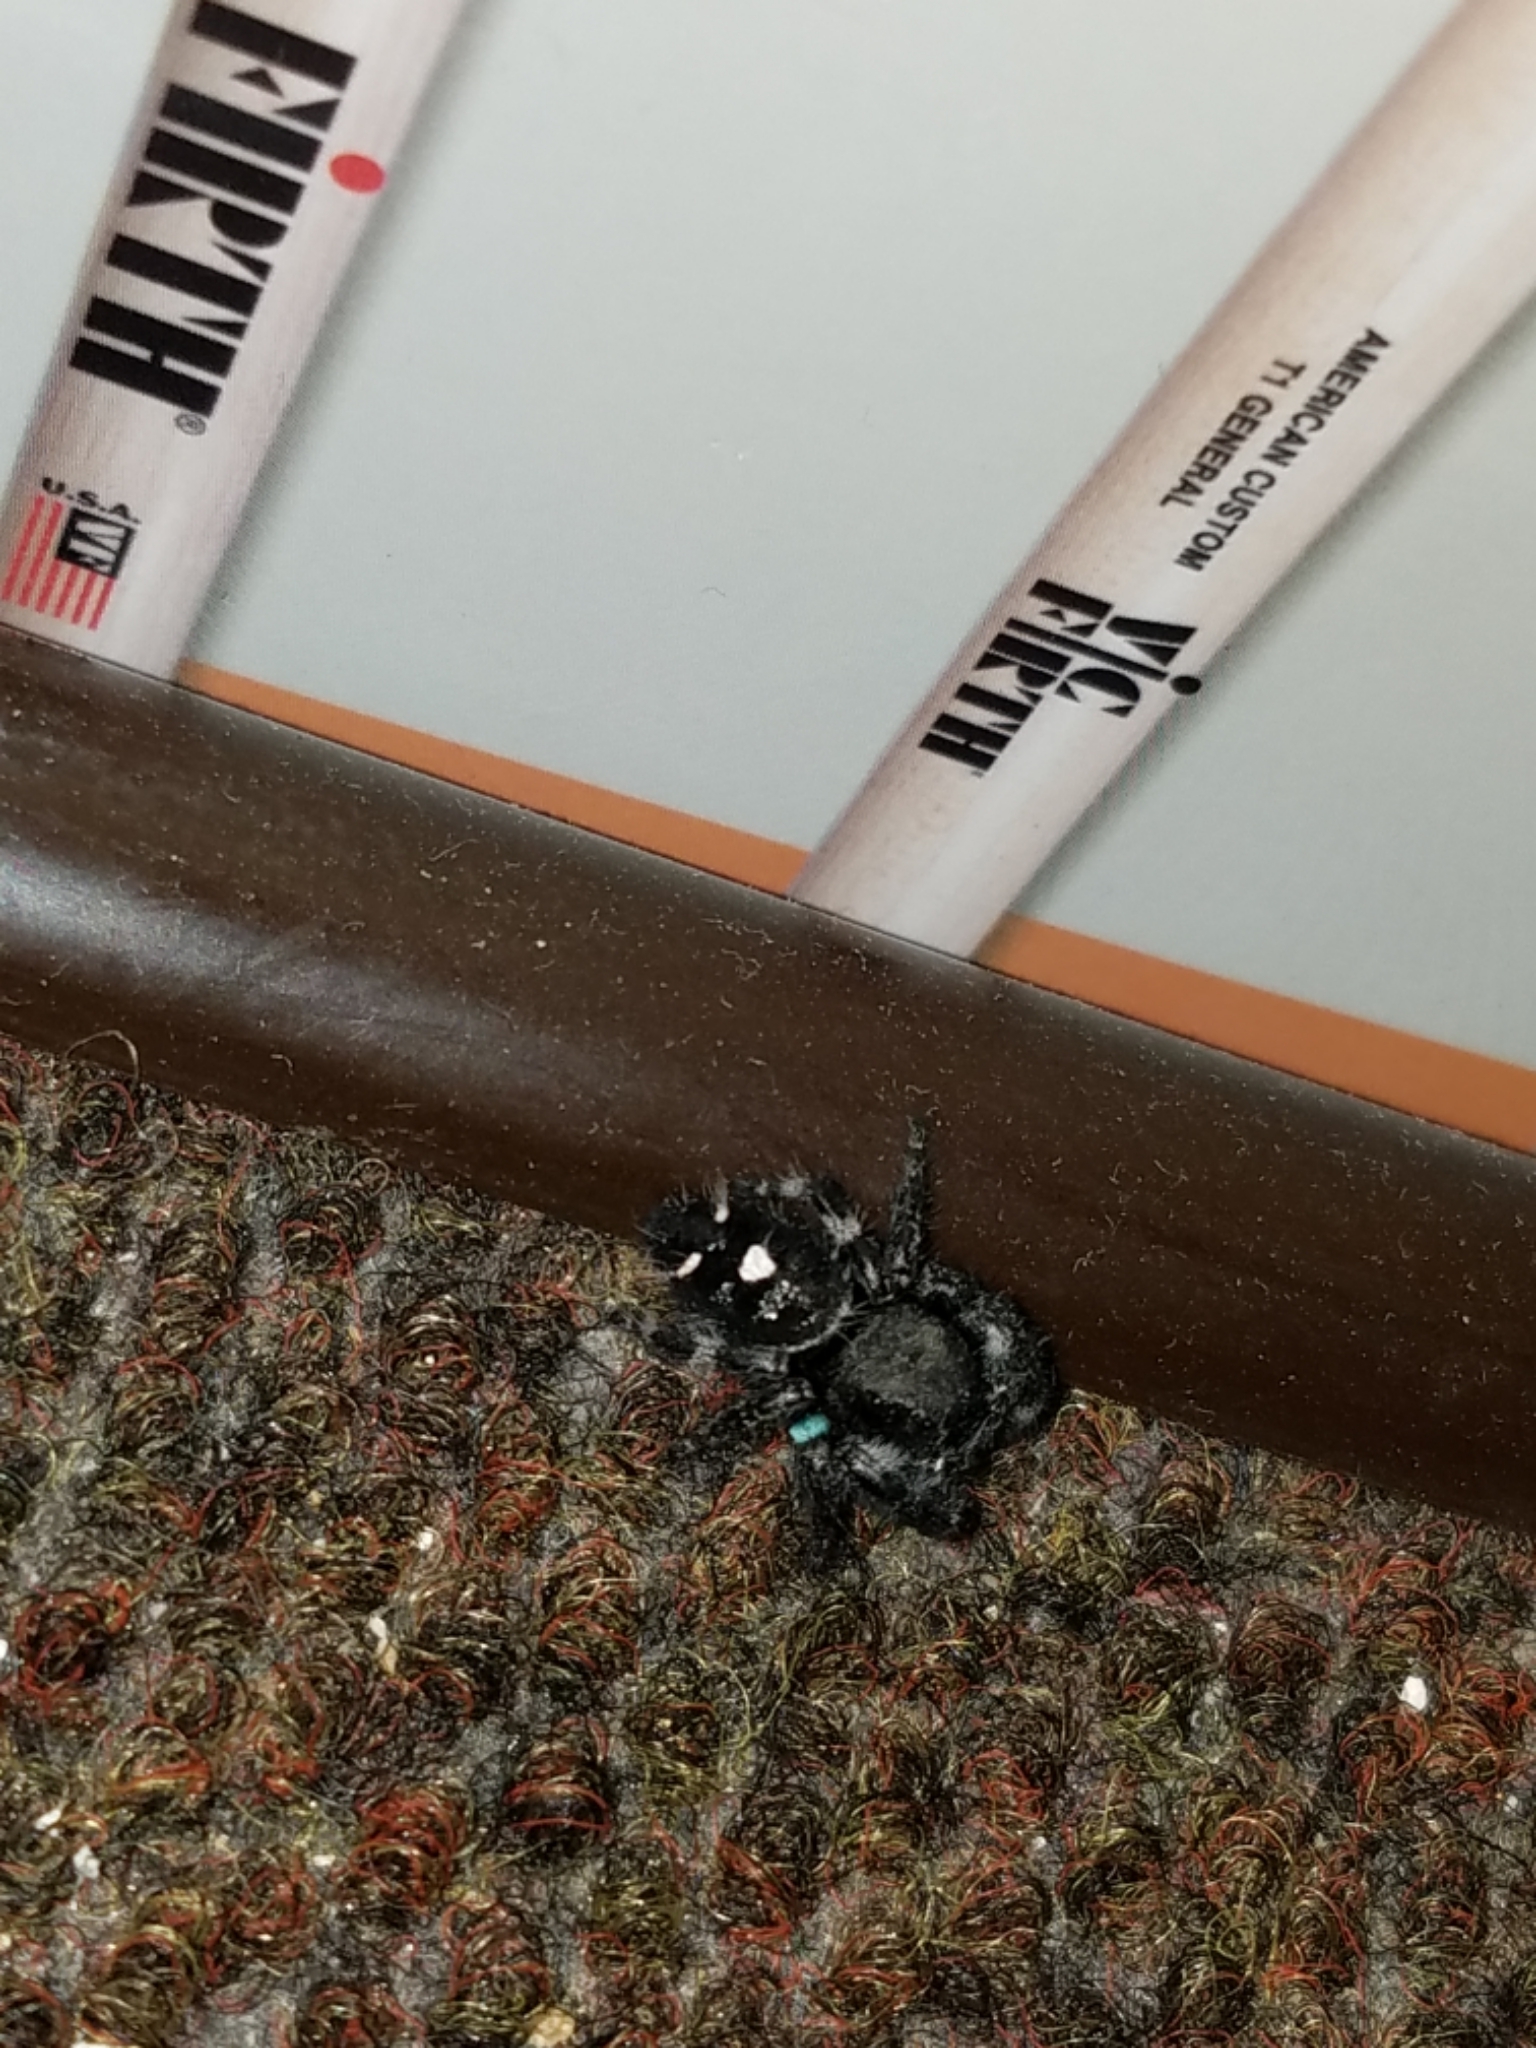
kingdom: Animalia
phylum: Arthropoda
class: Arachnida
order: Araneae
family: Salticidae
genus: Phidippus
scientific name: Phidippus audax
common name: Bold jumper
